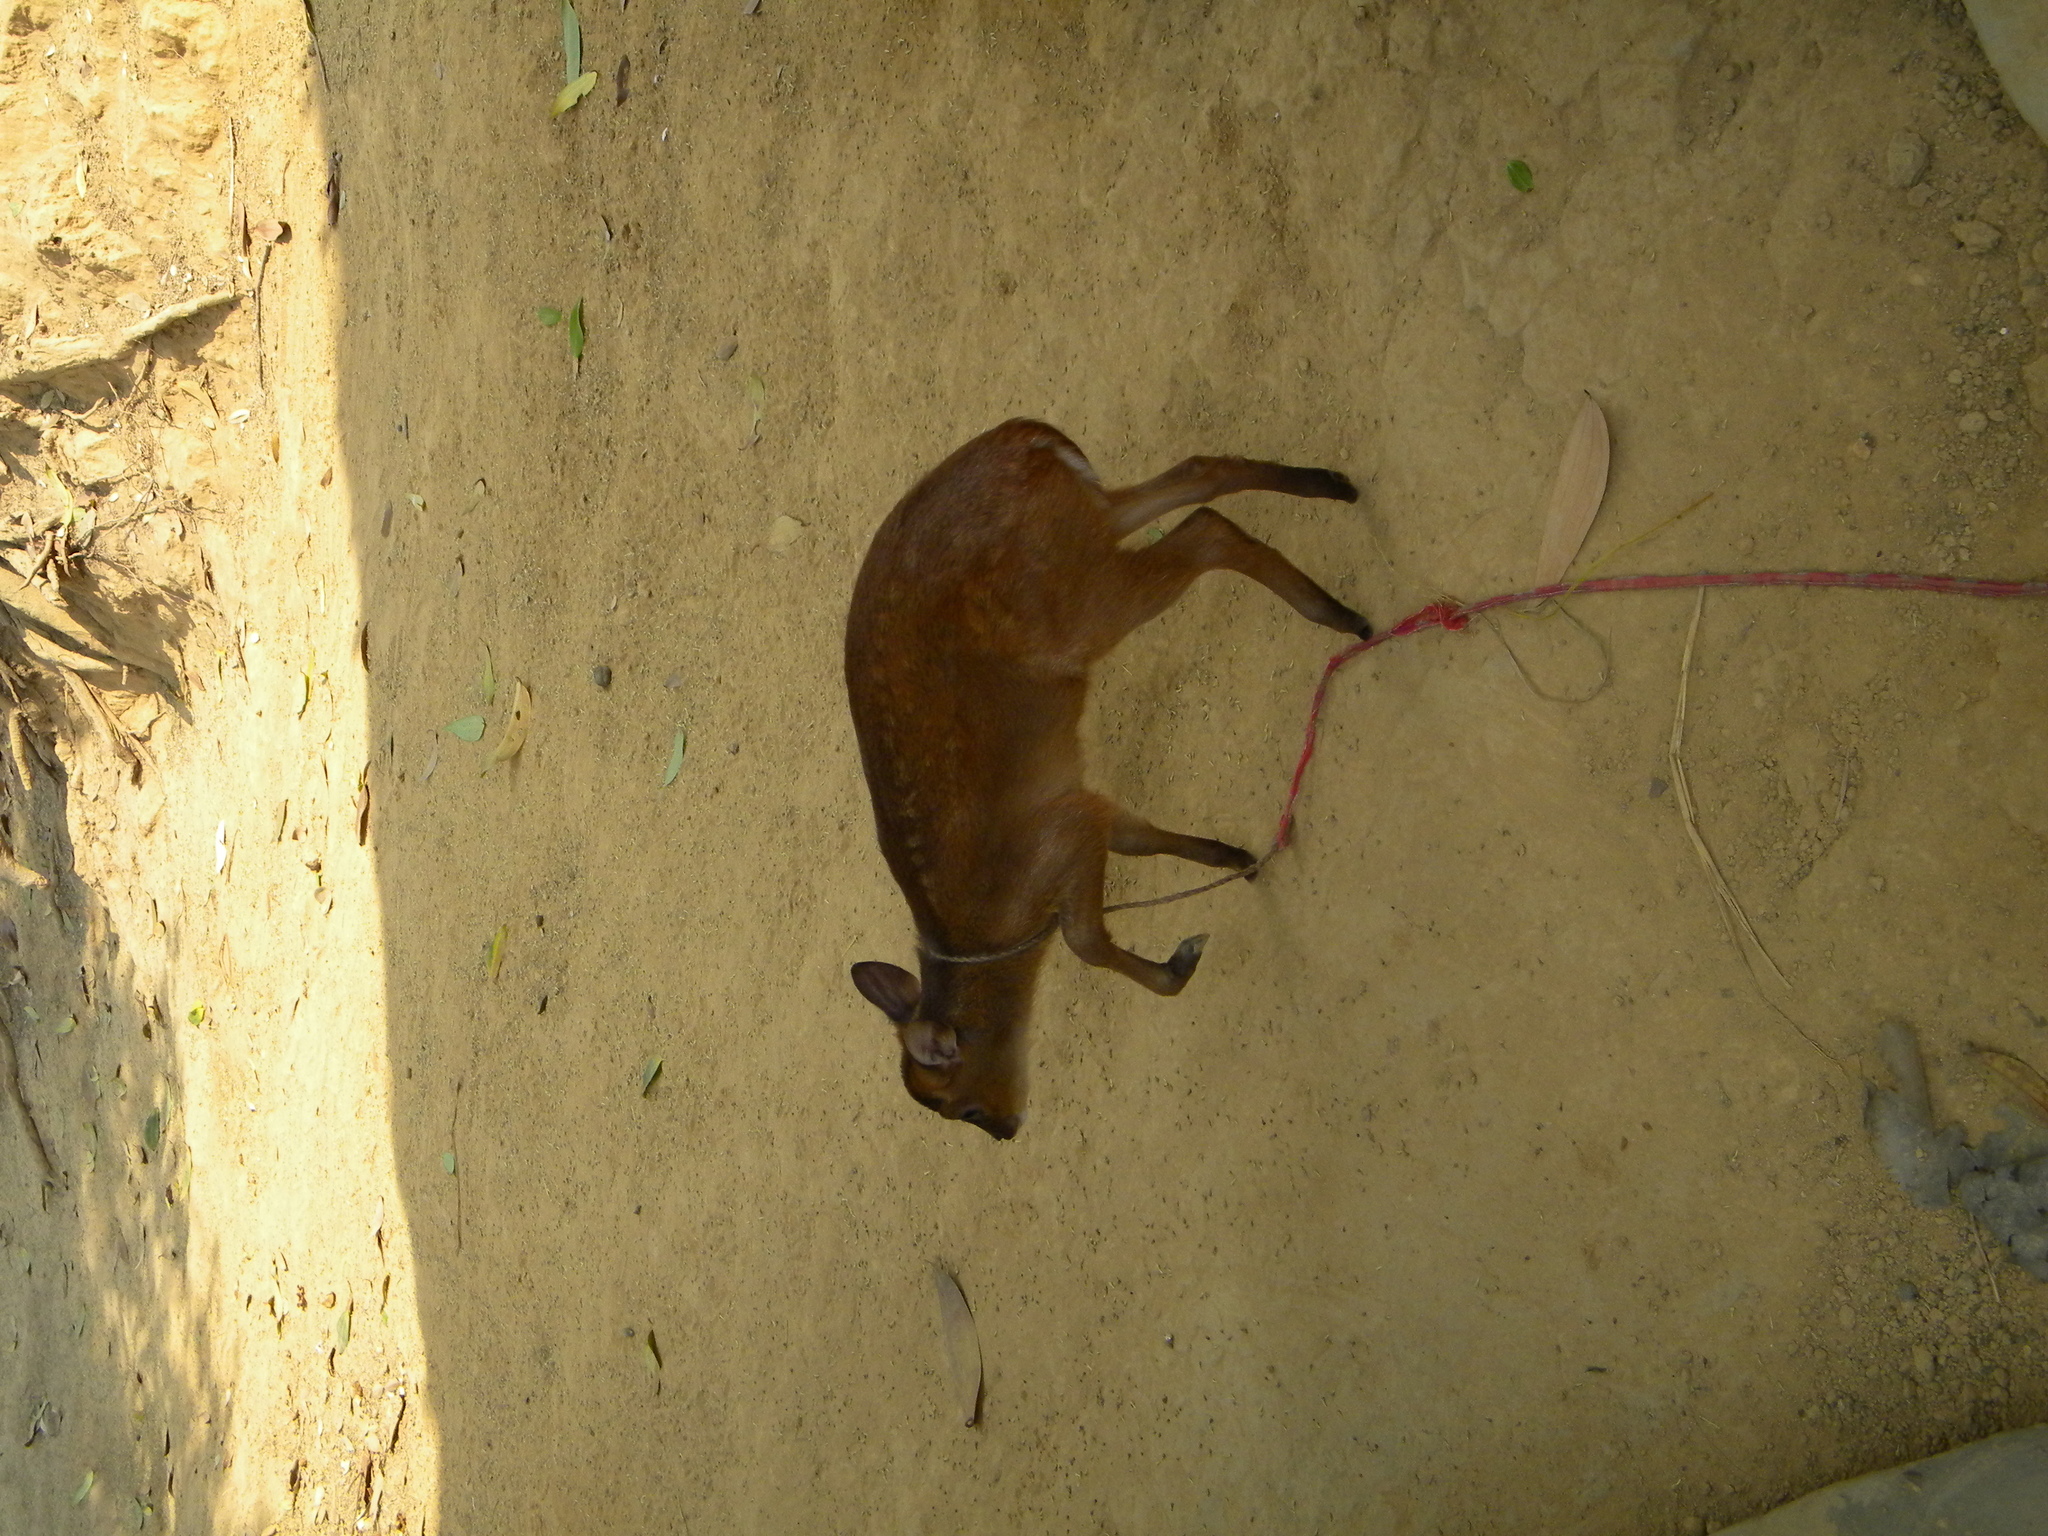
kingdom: Animalia
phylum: Chordata
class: Mammalia
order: Artiodactyla
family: Cervidae
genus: Muntiacus
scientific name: Muntiacus muntjak
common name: Indian muntjac
